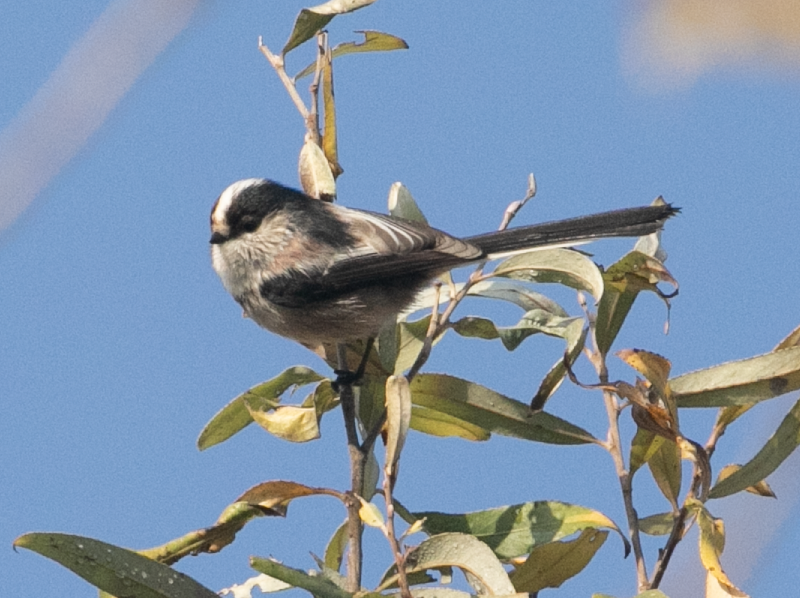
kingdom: Animalia
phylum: Chordata
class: Aves
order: Passeriformes
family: Aegithalidae
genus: Aegithalos
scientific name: Aegithalos caudatus
